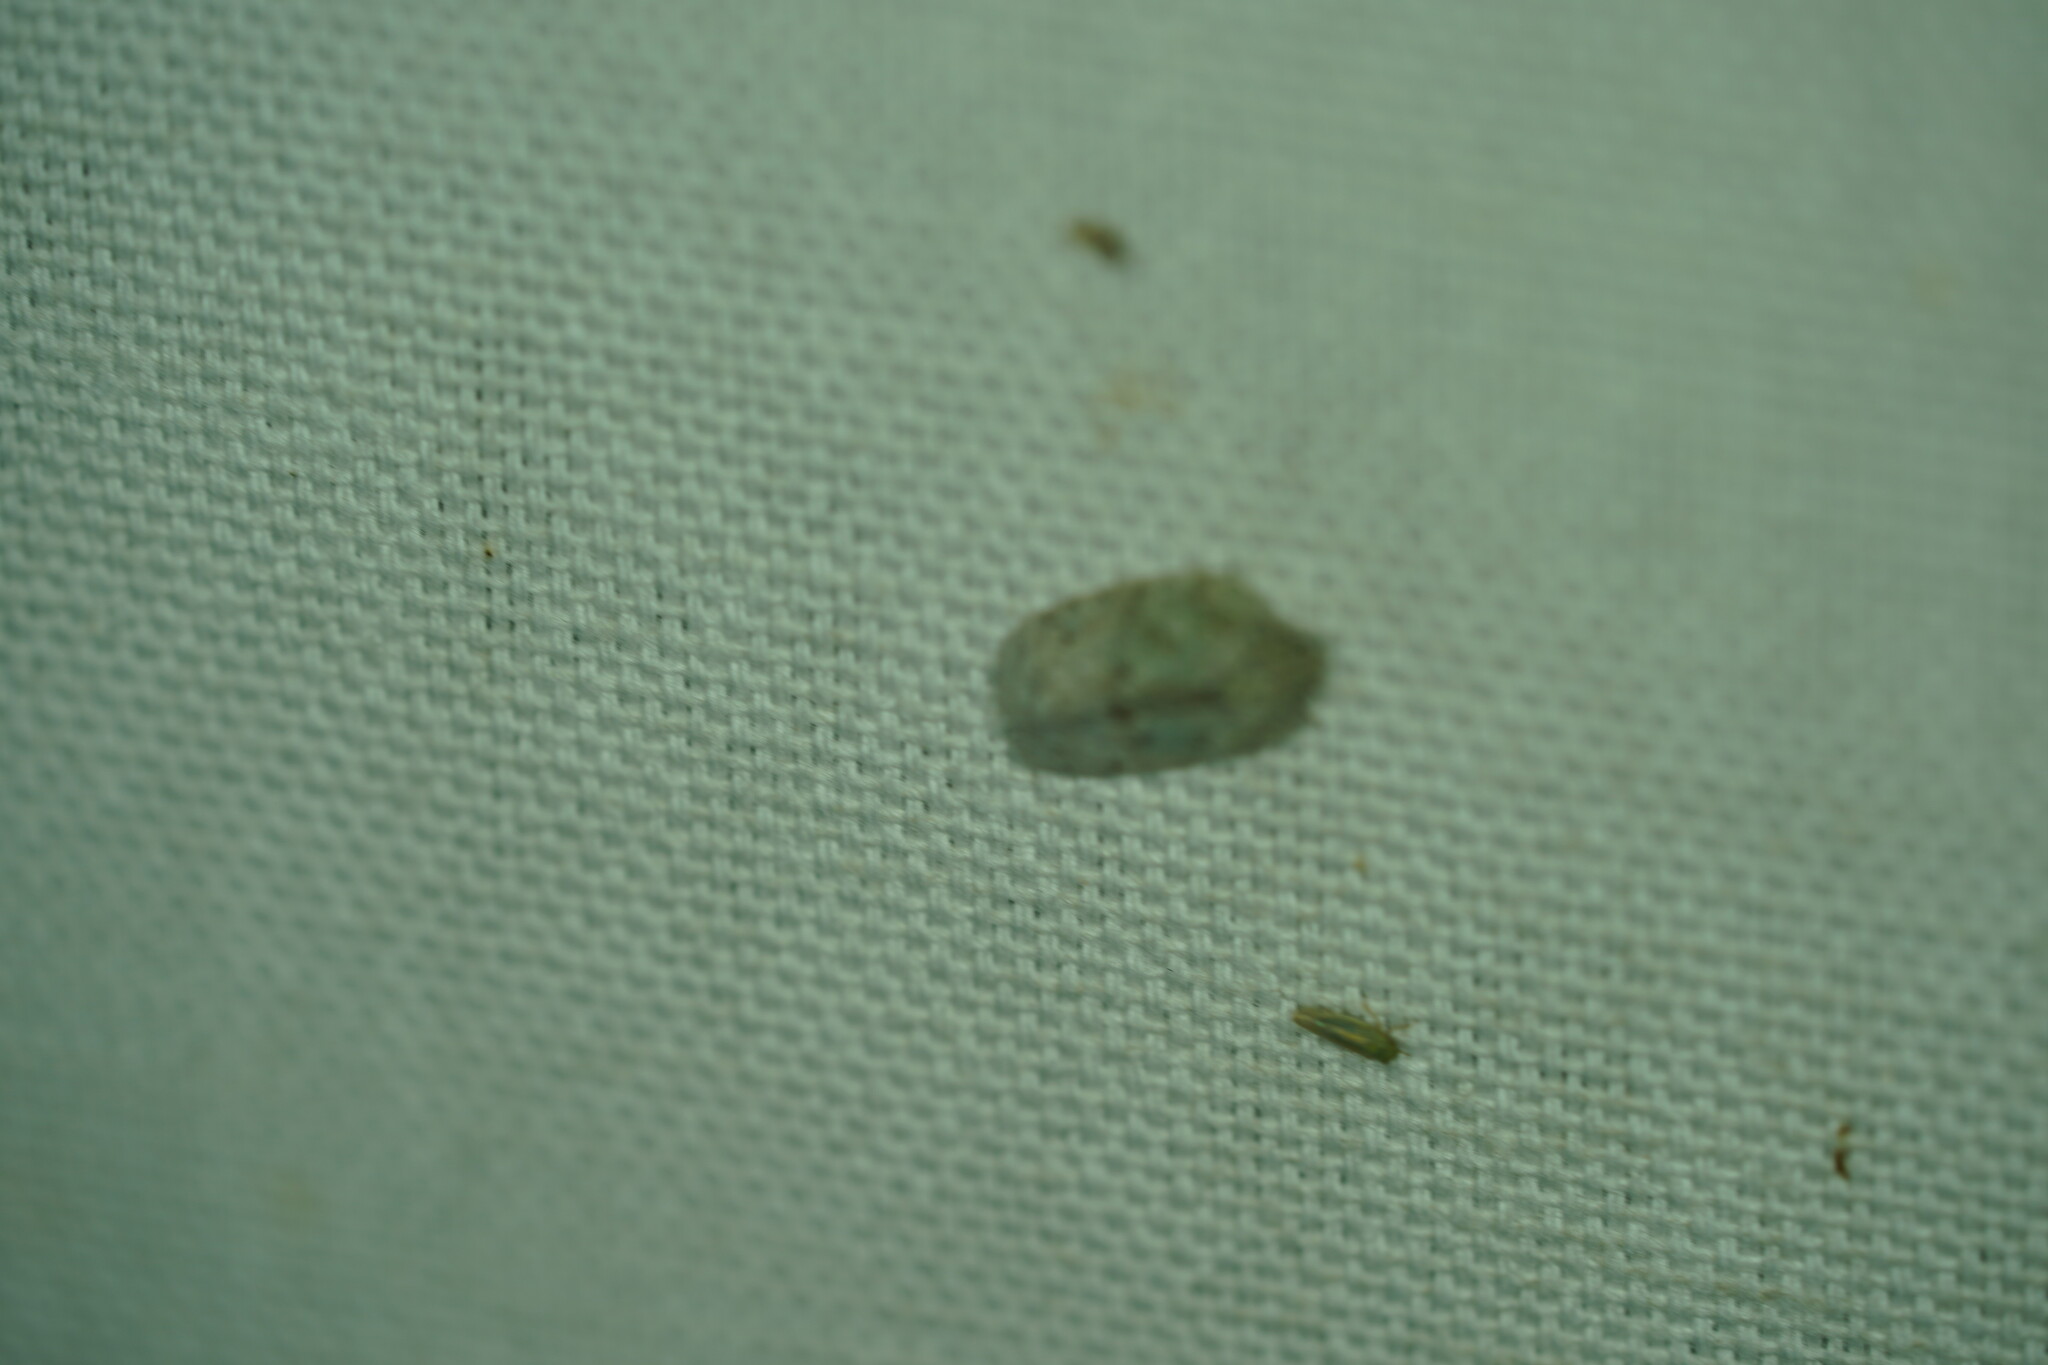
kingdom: Animalia
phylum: Arthropoda
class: Insecta
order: Hemiptera
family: Flatidae
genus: Flatoidinus
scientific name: Flatoidinus punctatus
